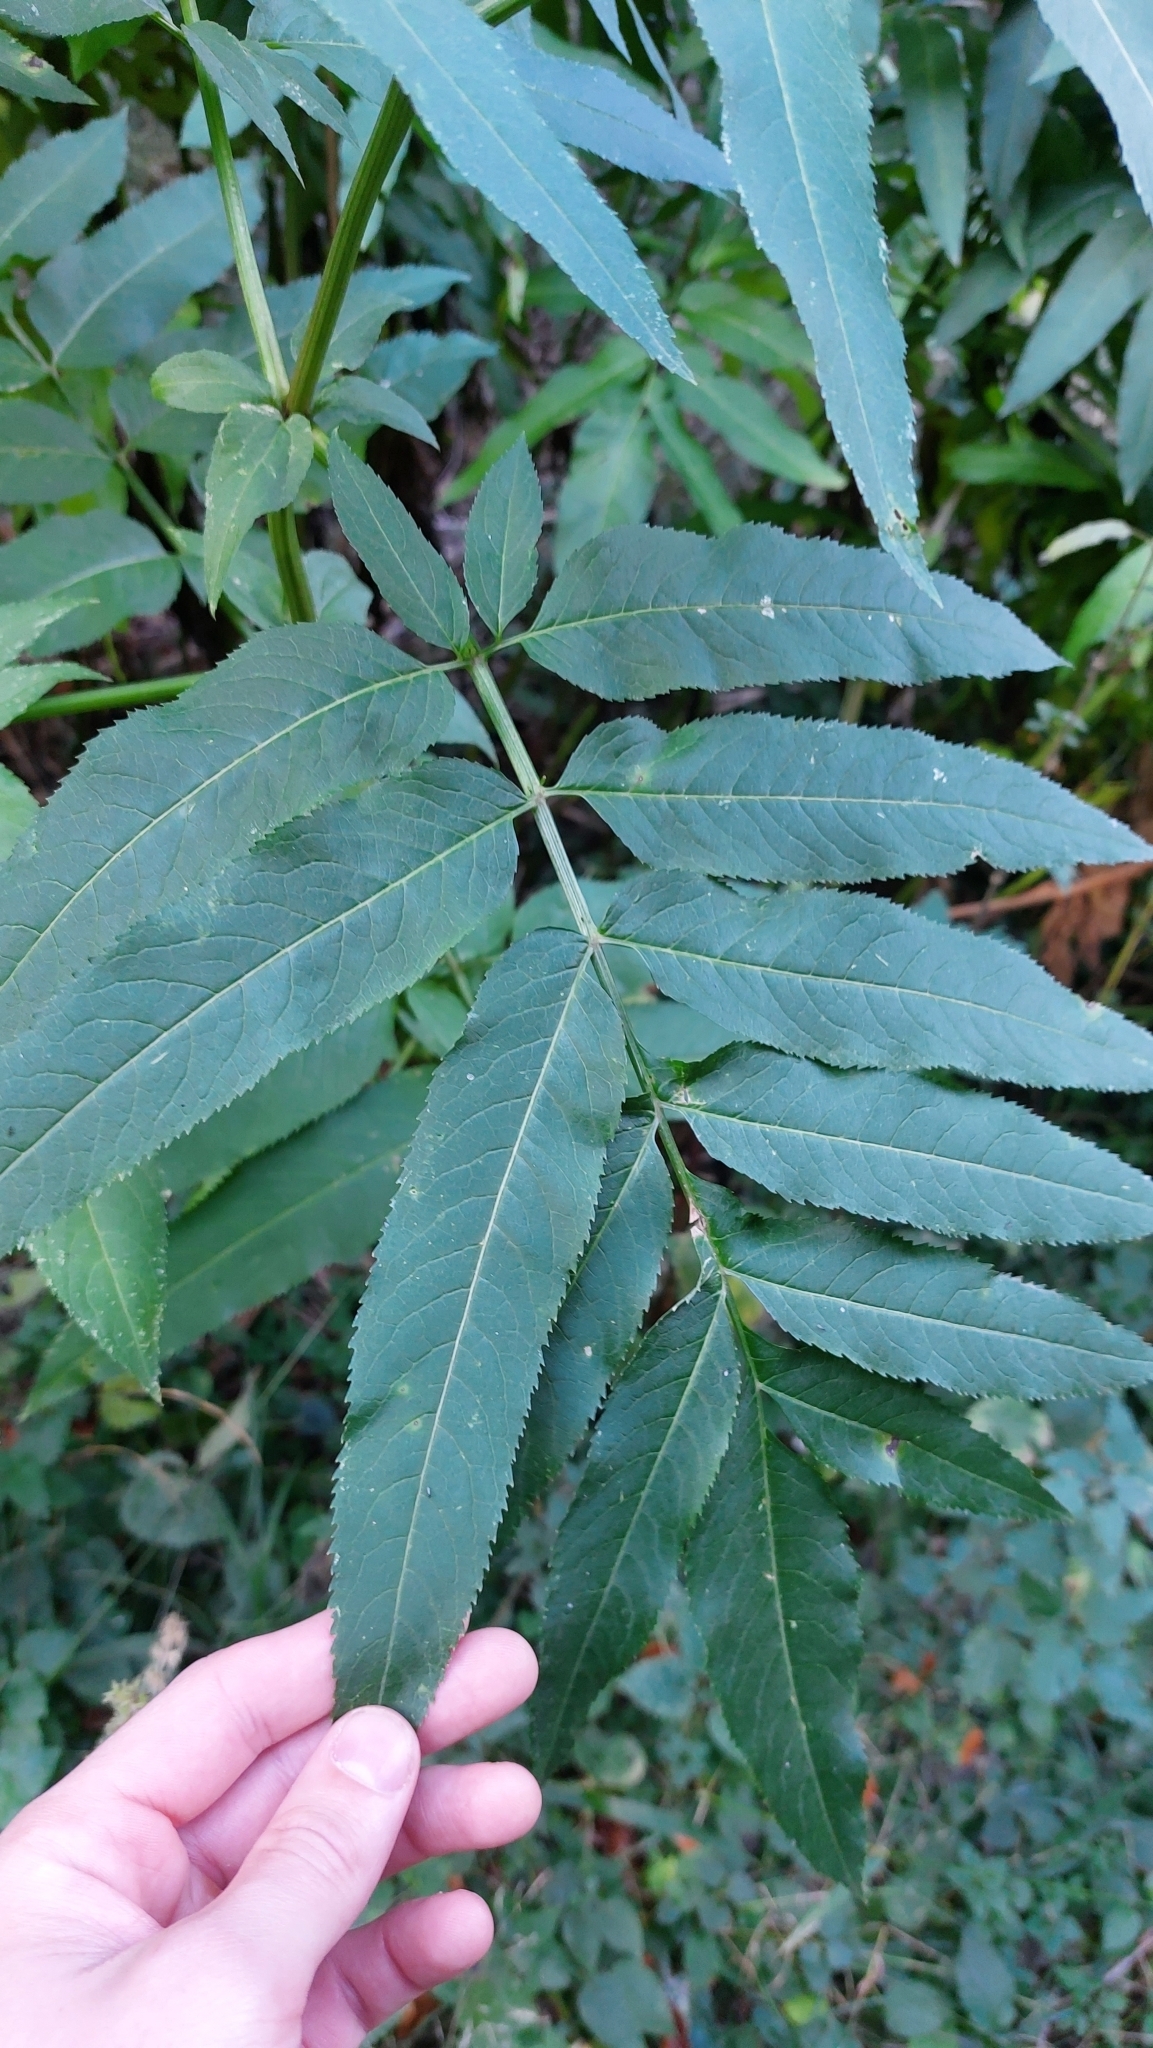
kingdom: Plantae
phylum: Tracheophyta
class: Magnoliopsida
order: Dipsacales
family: Viburnaceae
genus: Sambucus
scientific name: Sambucus ebulus
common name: Dwarf elder
